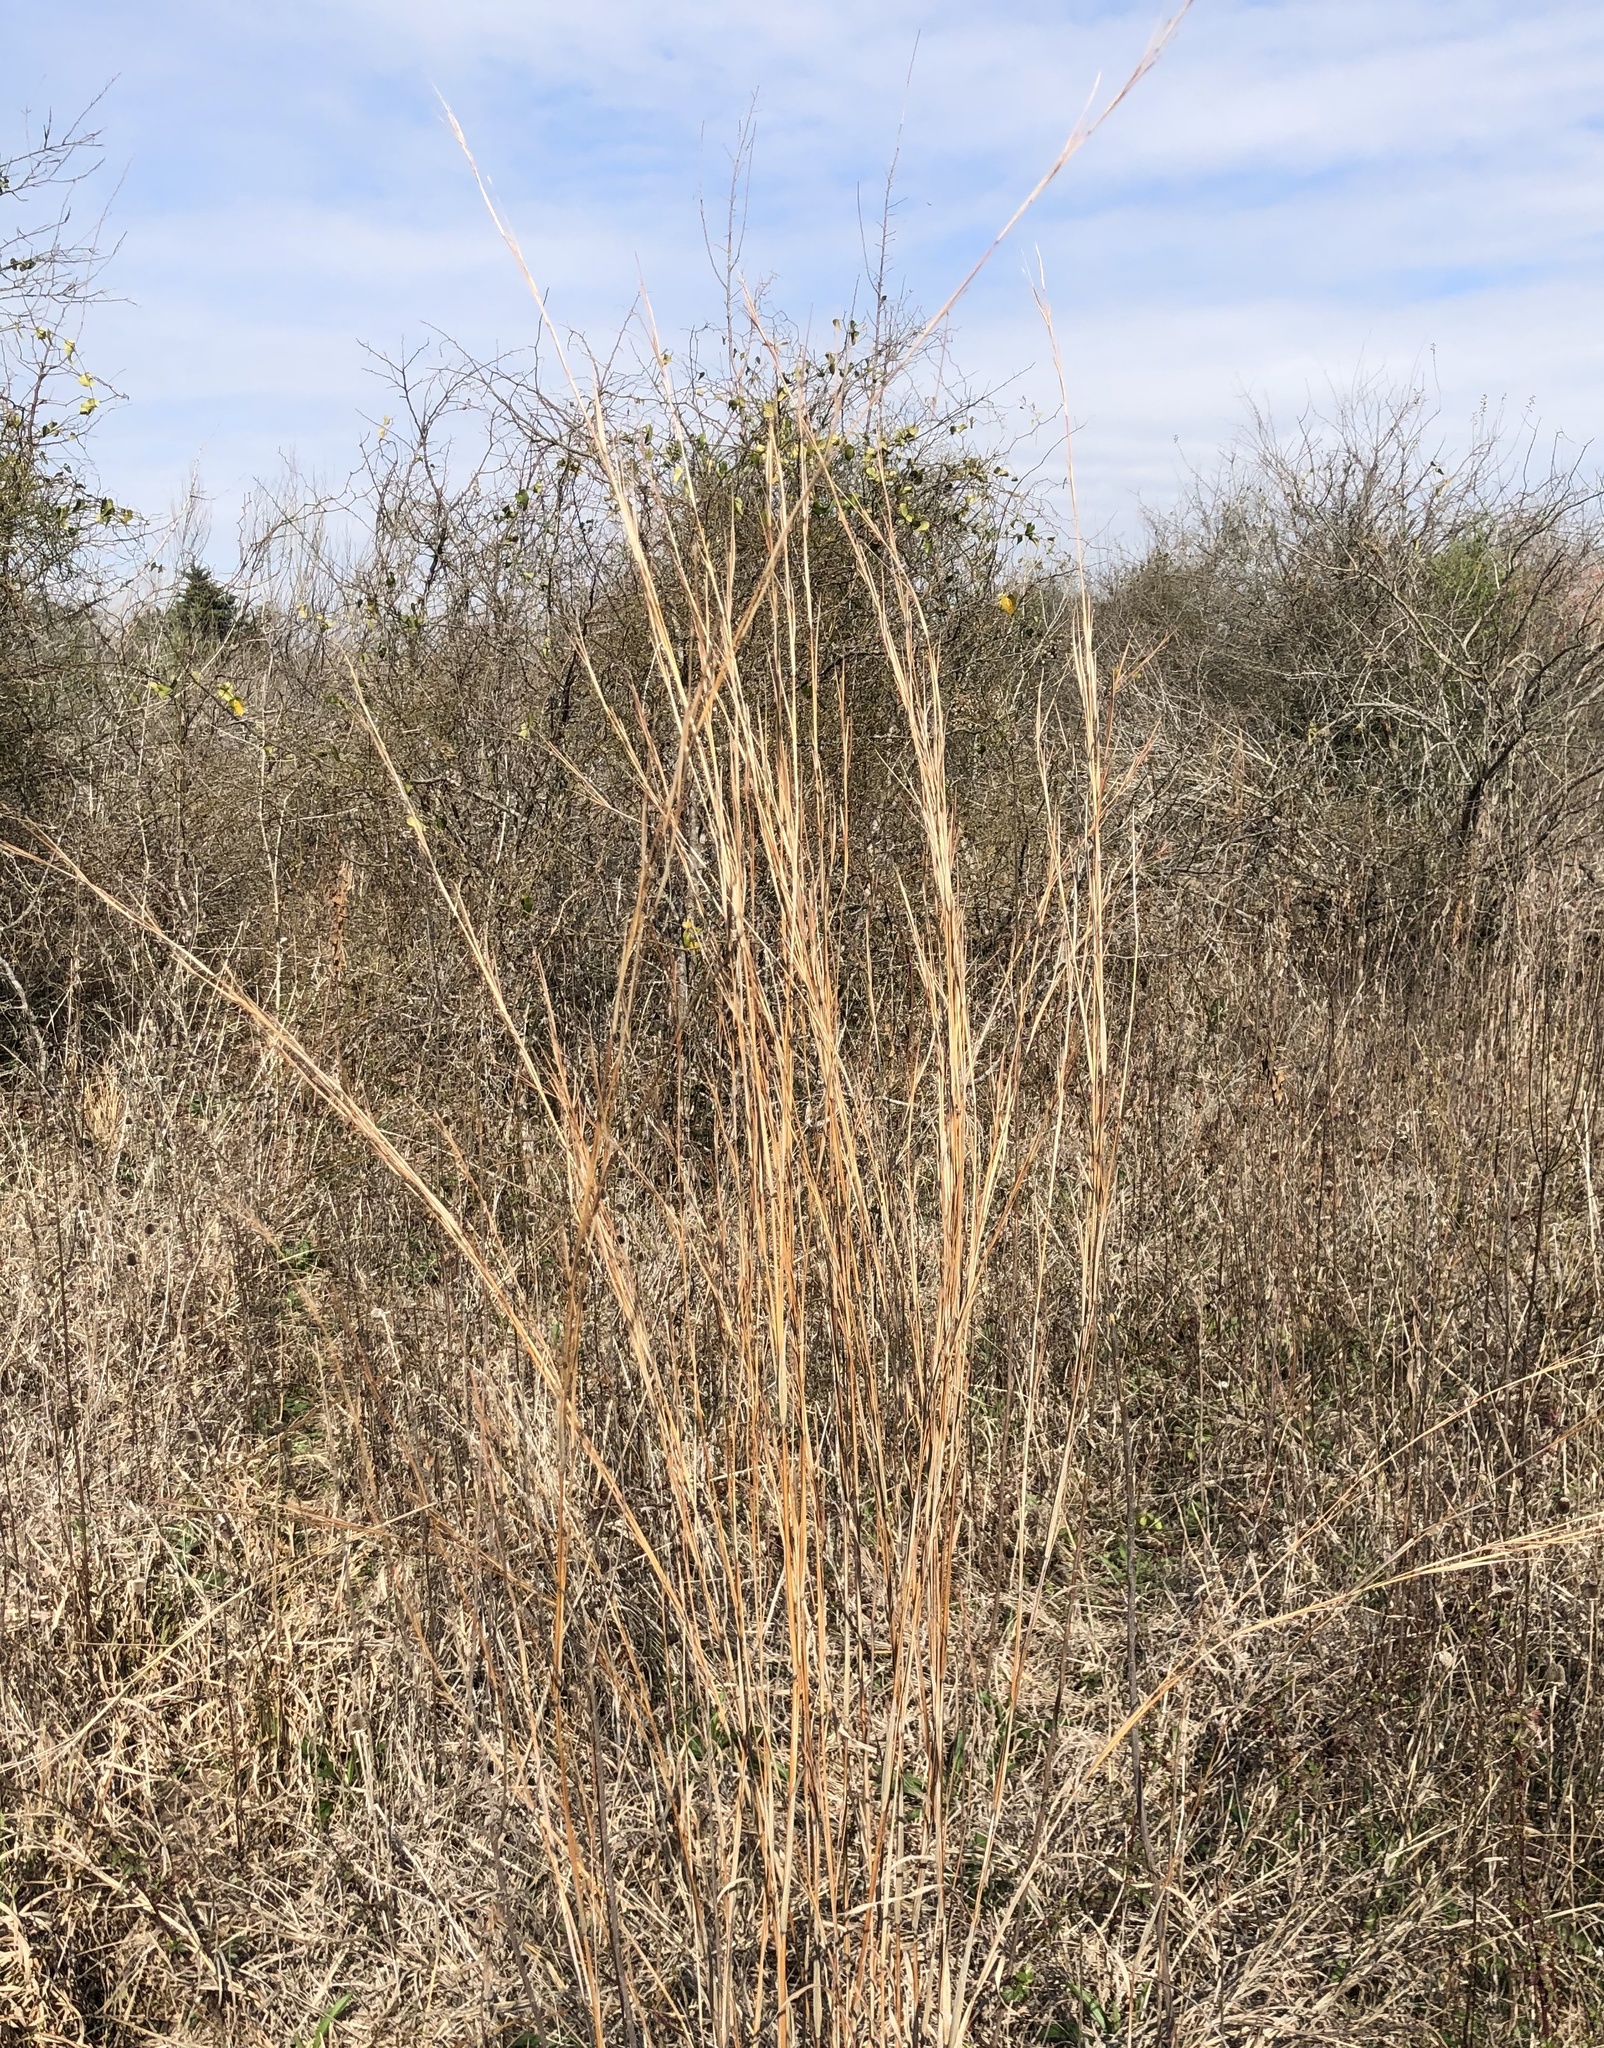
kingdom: Plantae
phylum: Tracheophyta
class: Liliopsida
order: Poales
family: Poaceae
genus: Schizachyrium
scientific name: Schizachyrium scoparium
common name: Little bluestem
